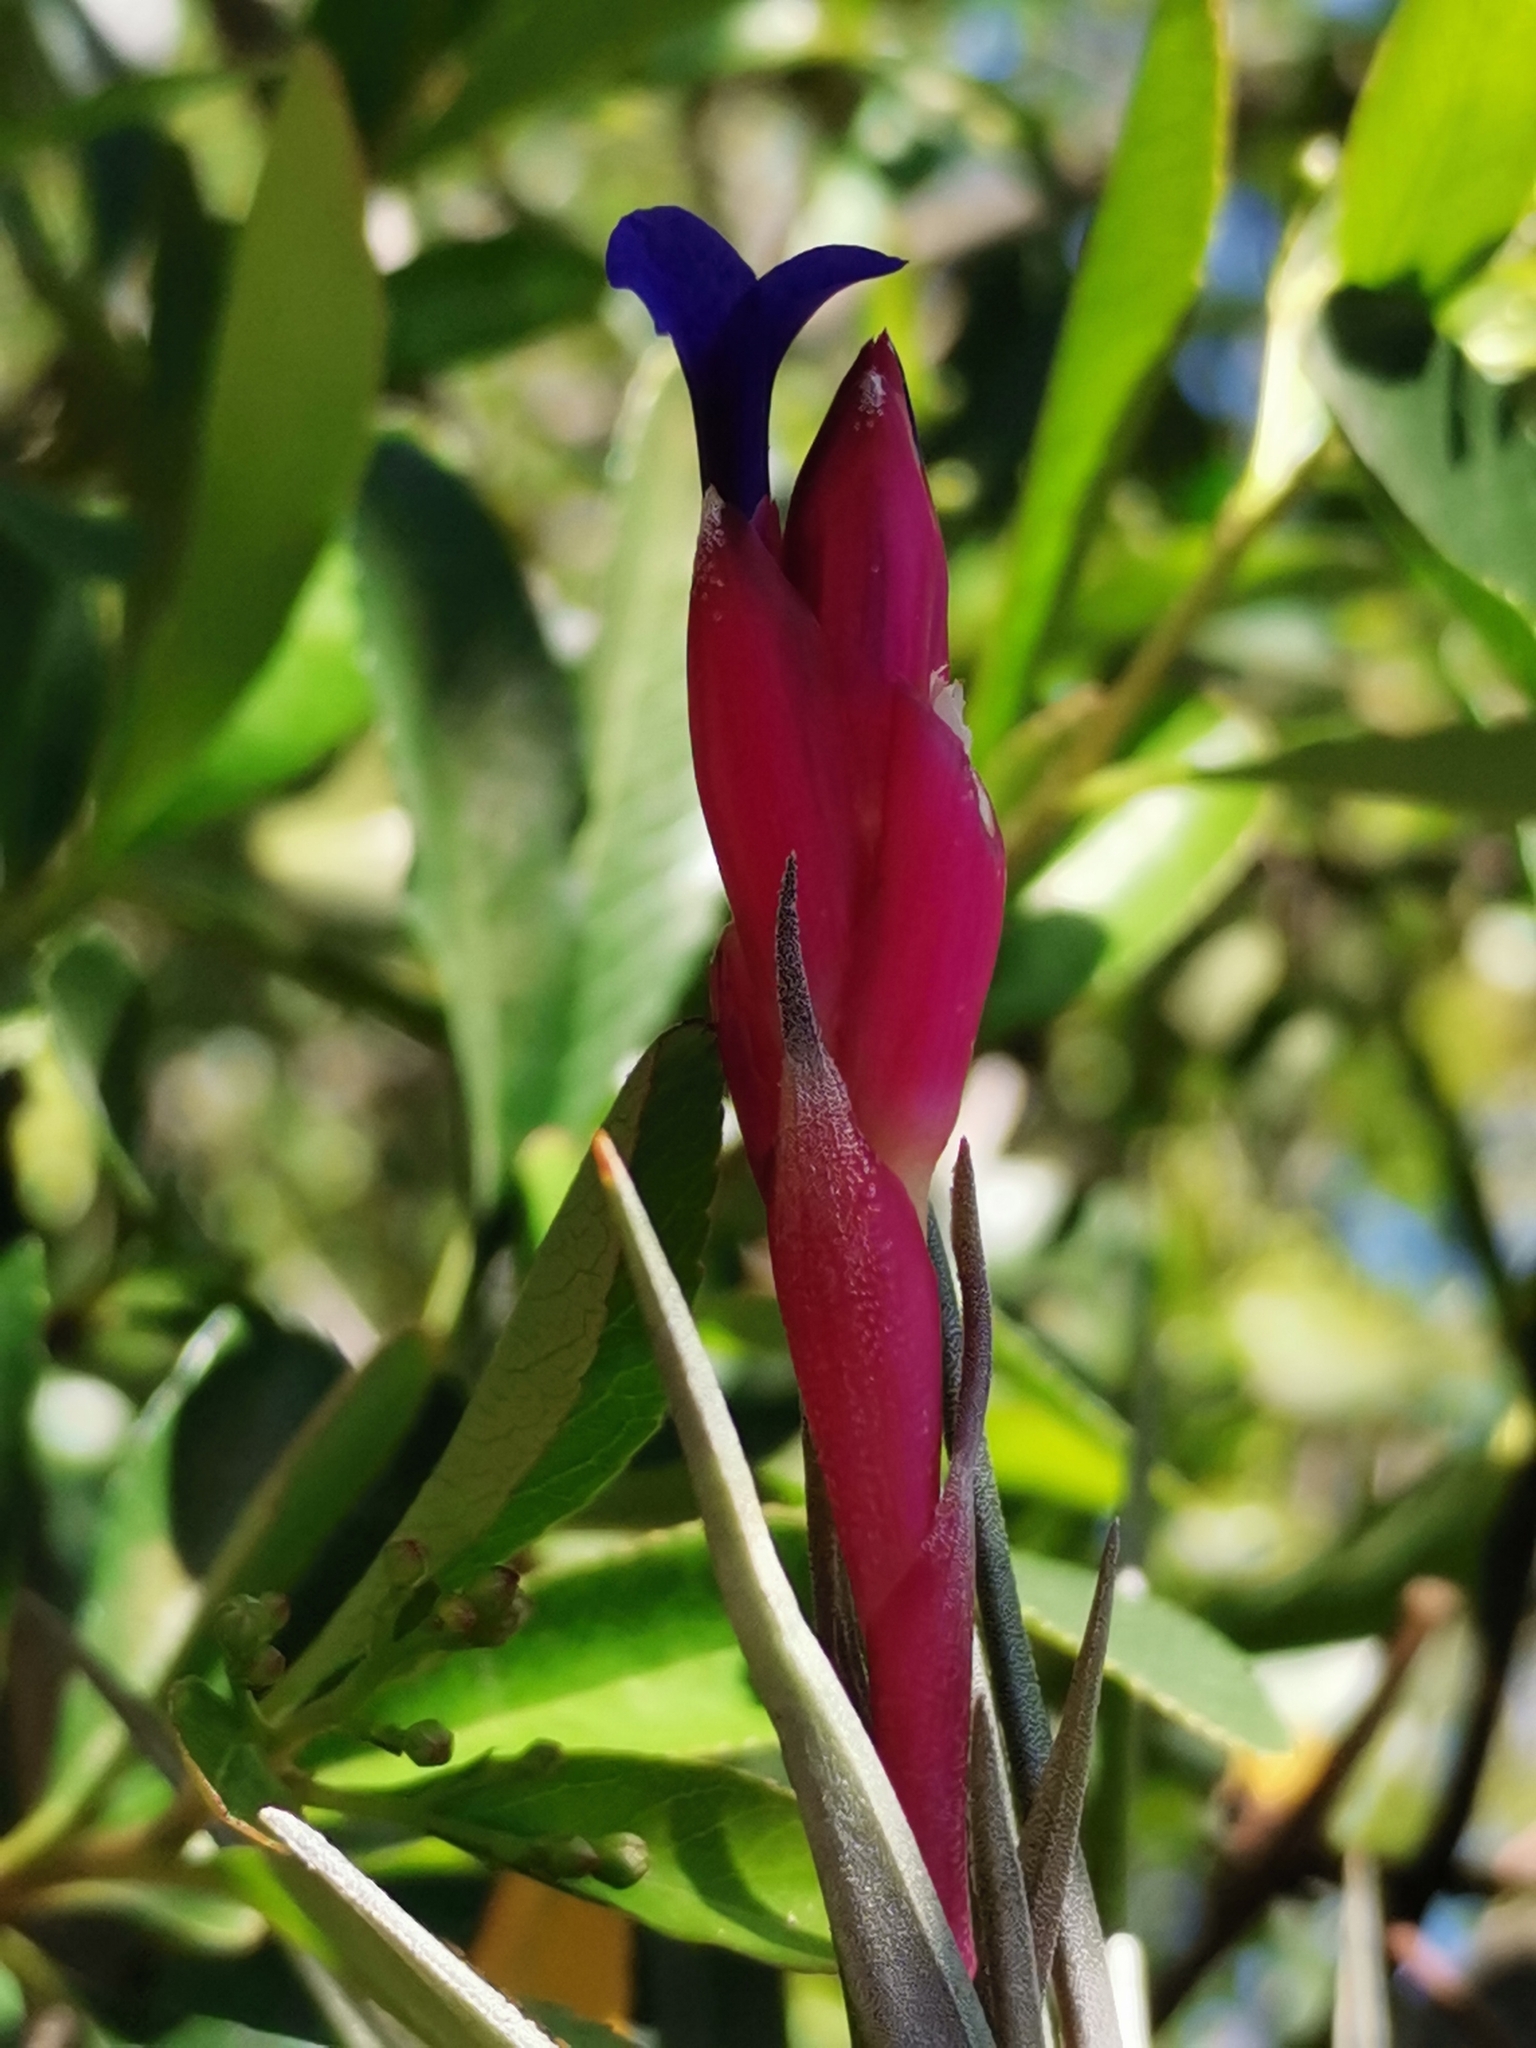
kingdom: Plantae
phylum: Tracheophyta
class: Liliopsida
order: Poales
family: Bromeliaceae
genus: Tillandsia
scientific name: Tillandsia aeranthos
